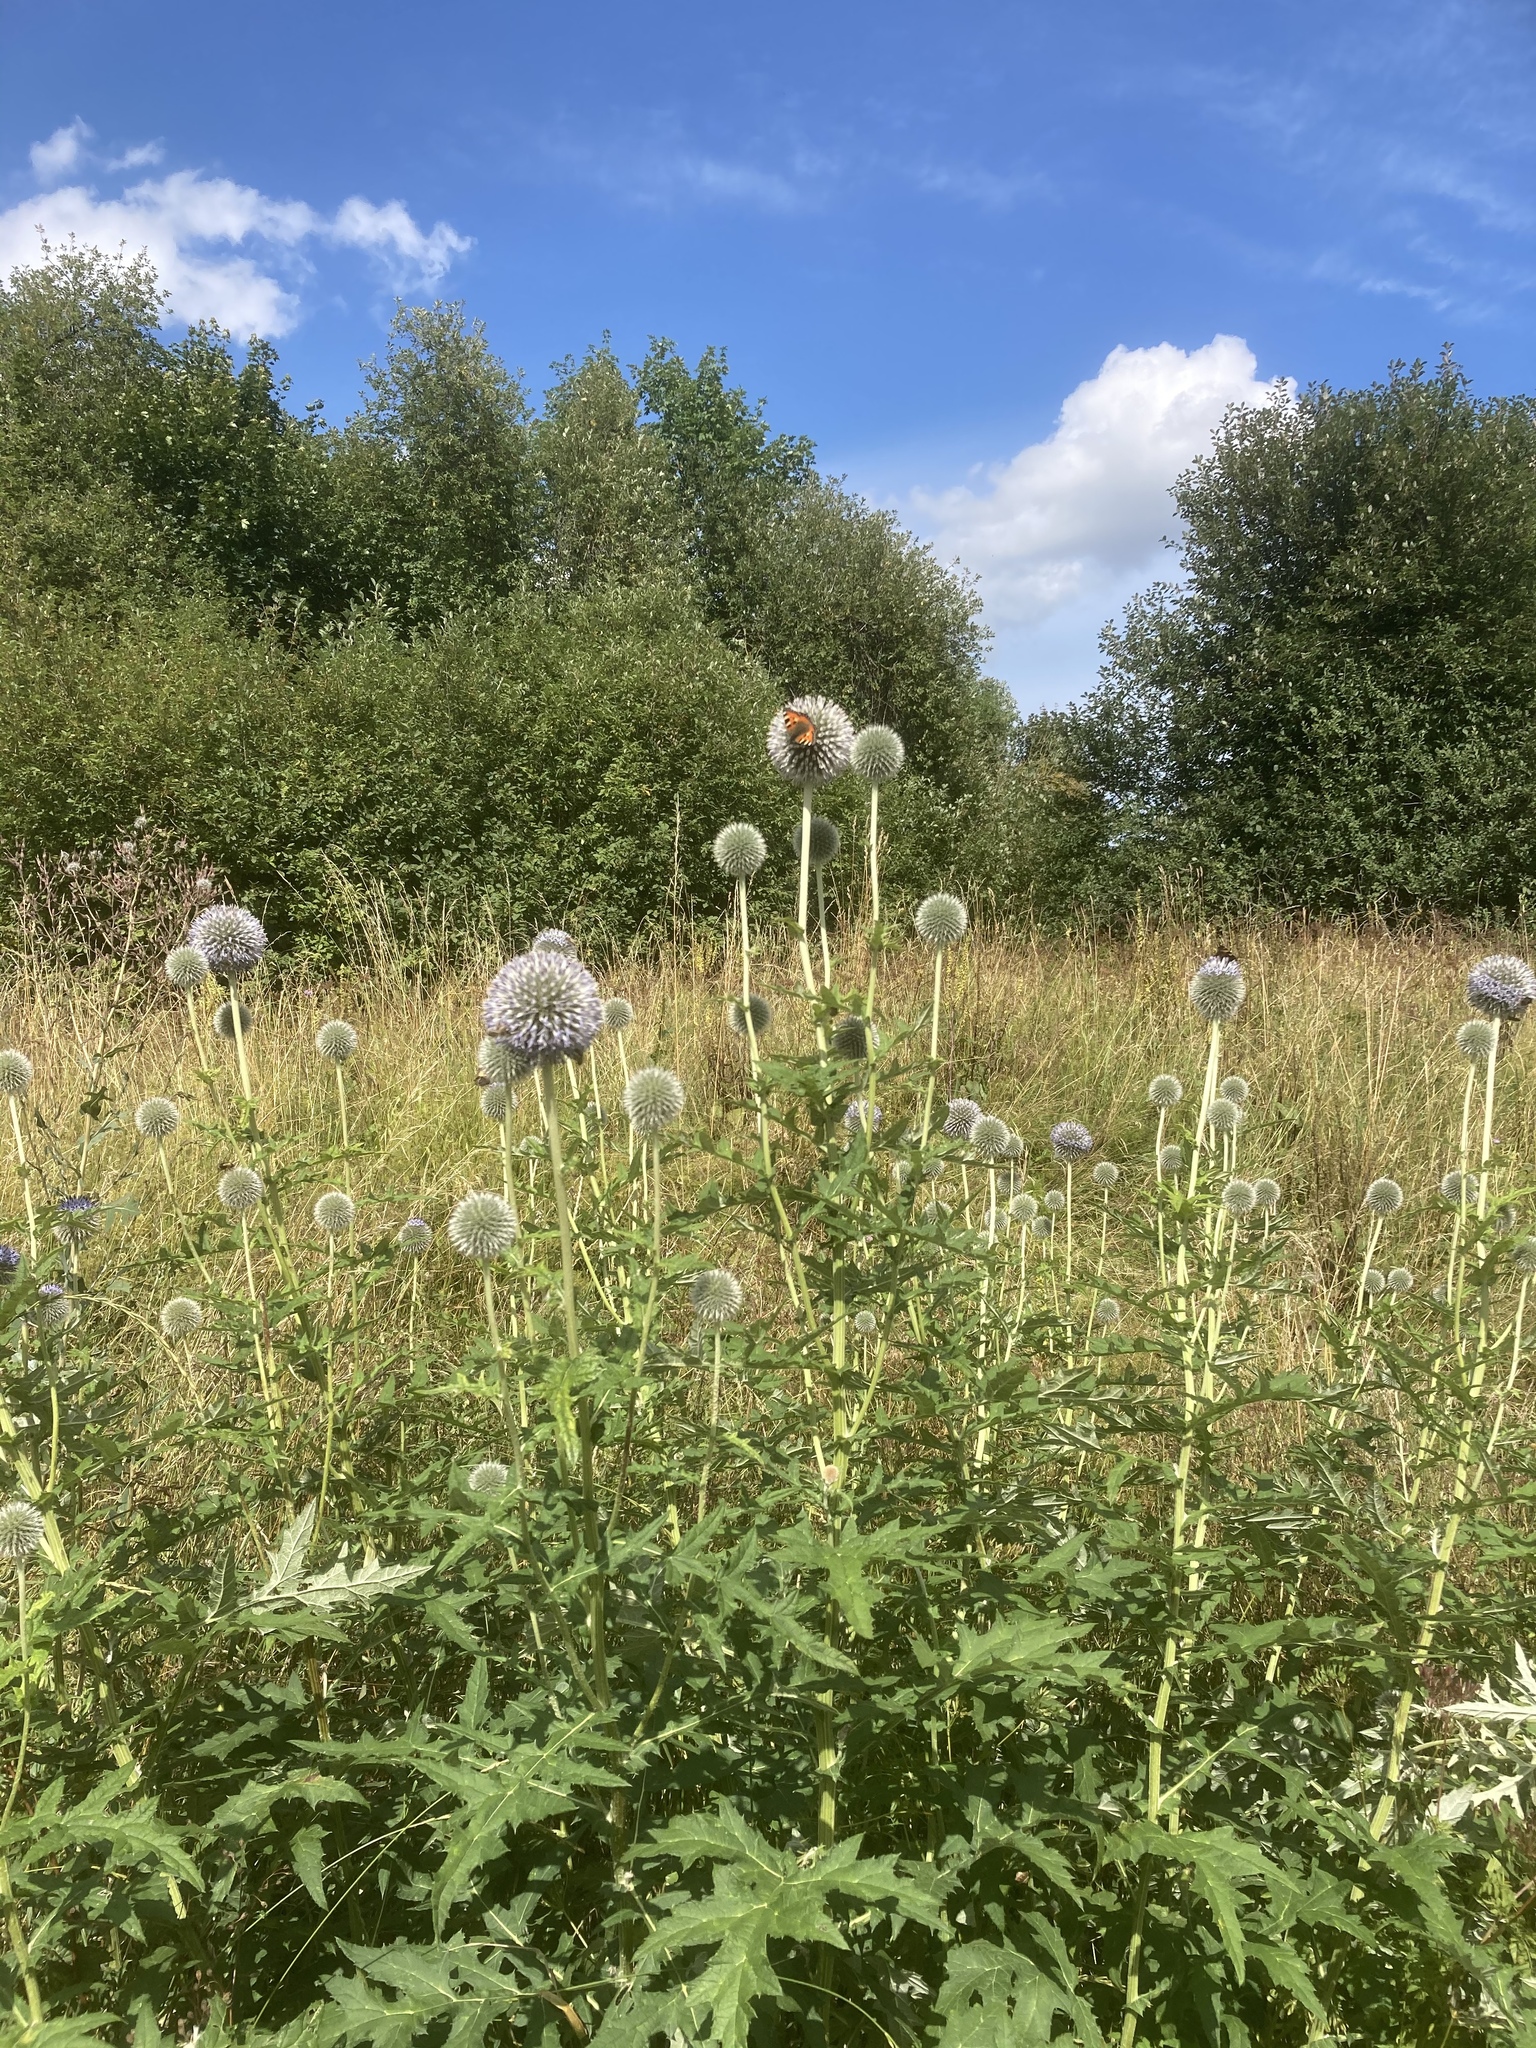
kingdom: Plantae
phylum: Tracheophyta
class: Magnoliopsida
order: Asterales
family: Asteraceae
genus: Echinops
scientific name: Echinops sphaerocephalus
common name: Glandular globe-thistle
